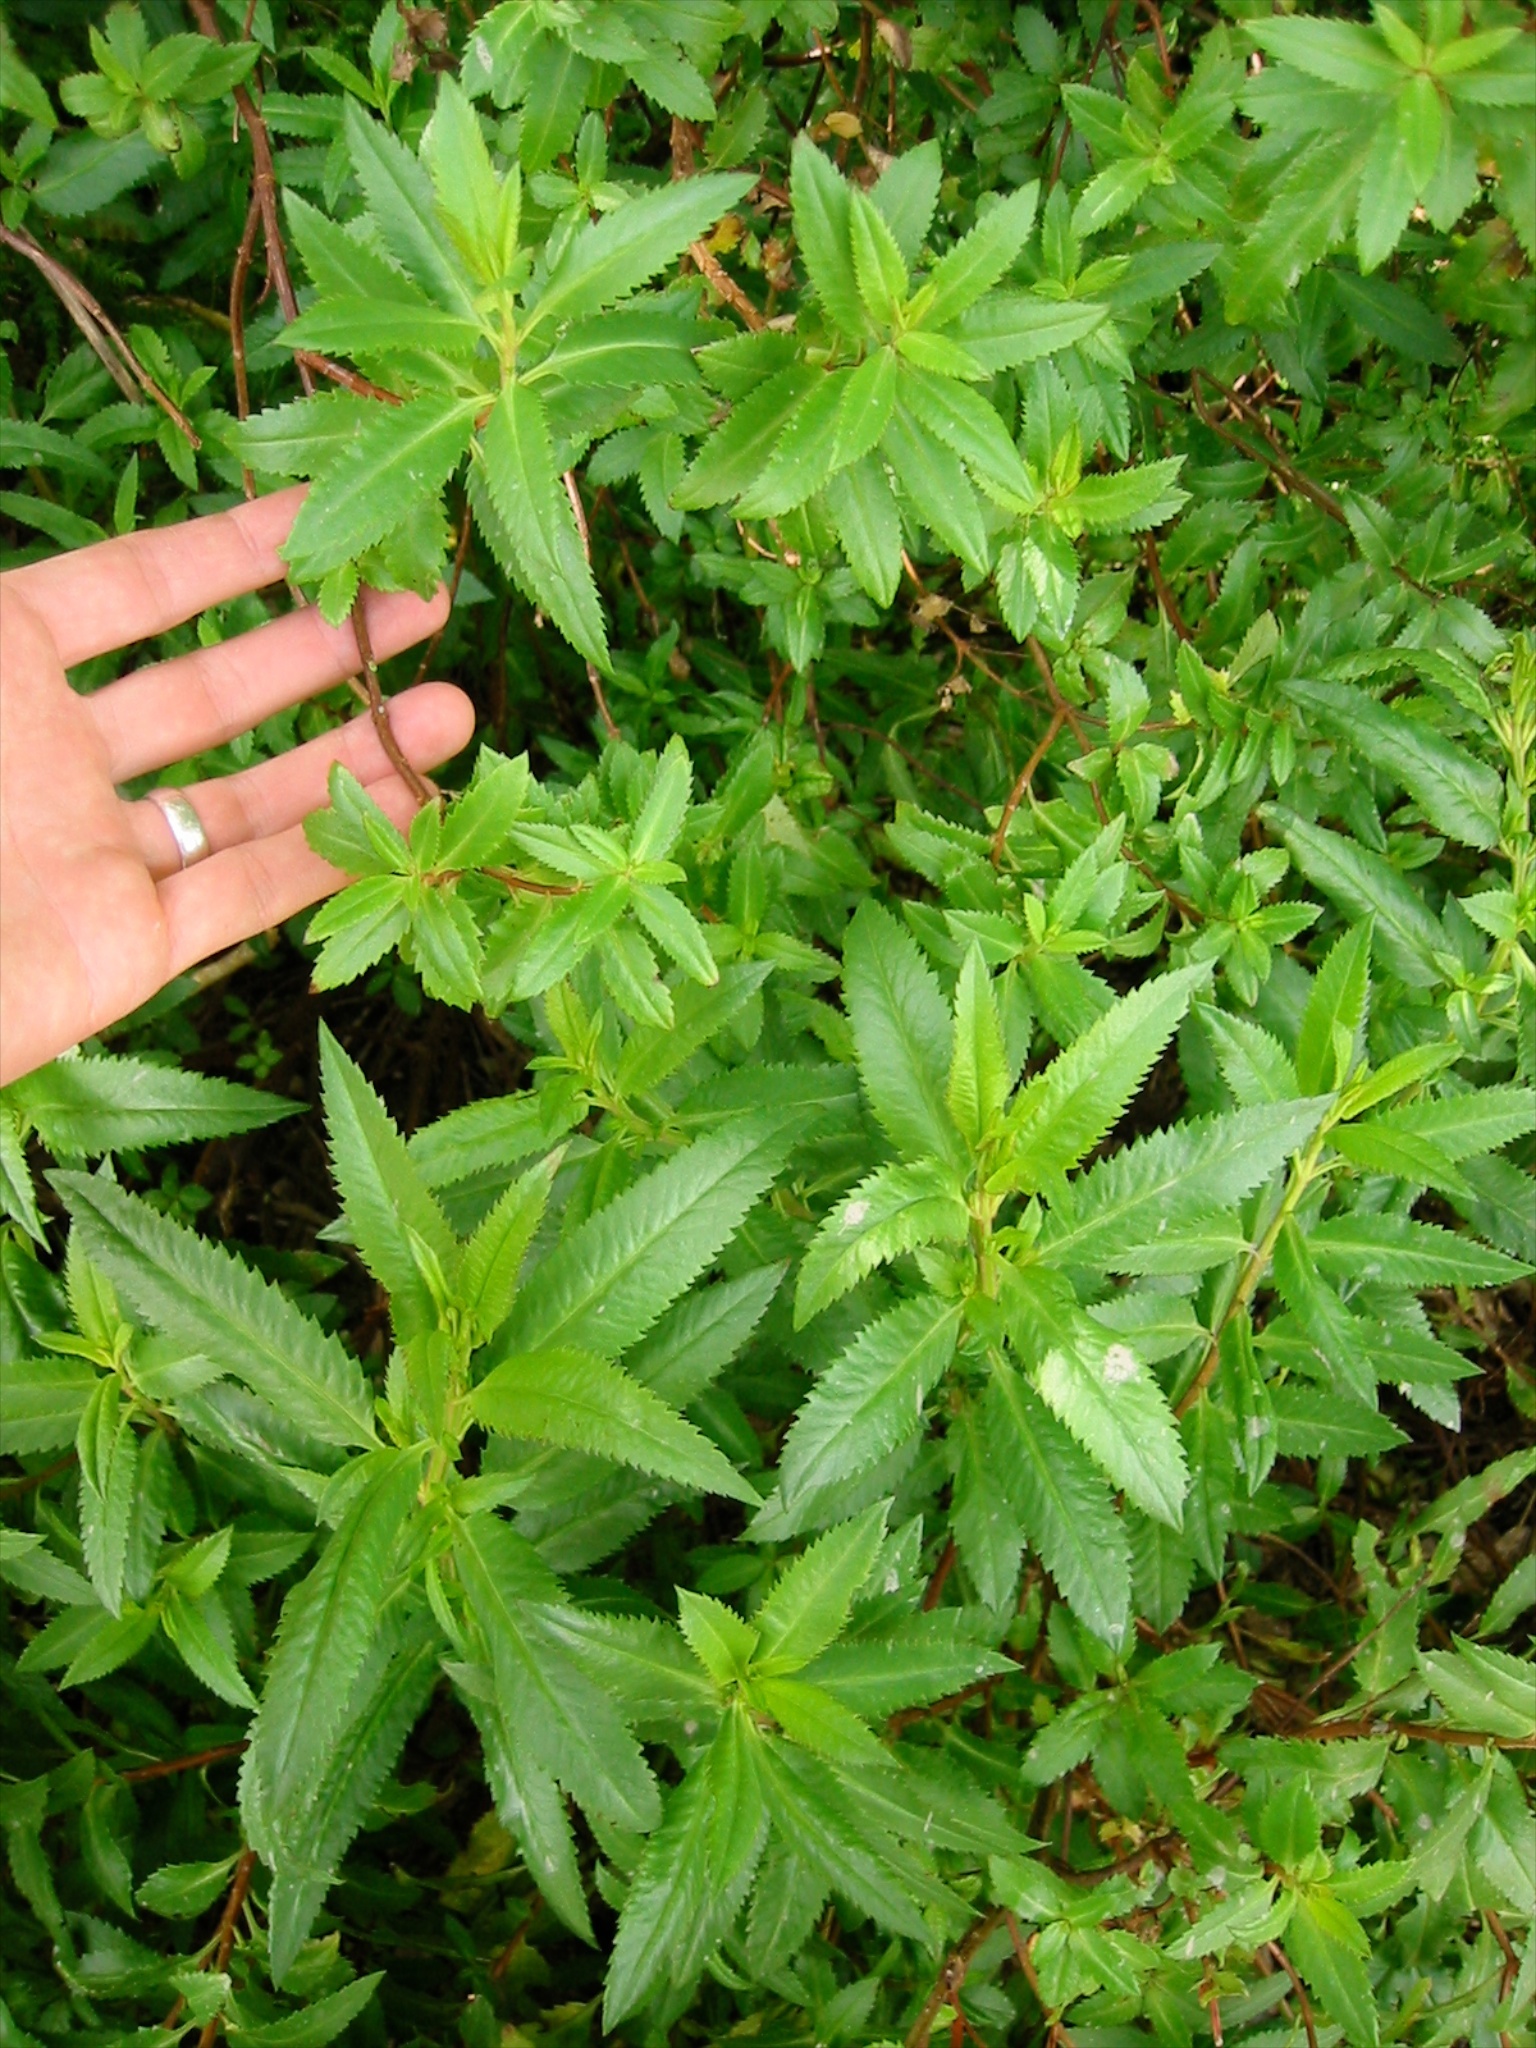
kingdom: Plantae
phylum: Tracheophyta
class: Magnoliopsida
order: Saxifragales
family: Haloragaceae
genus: Haloragis
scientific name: Haloragis erecta
